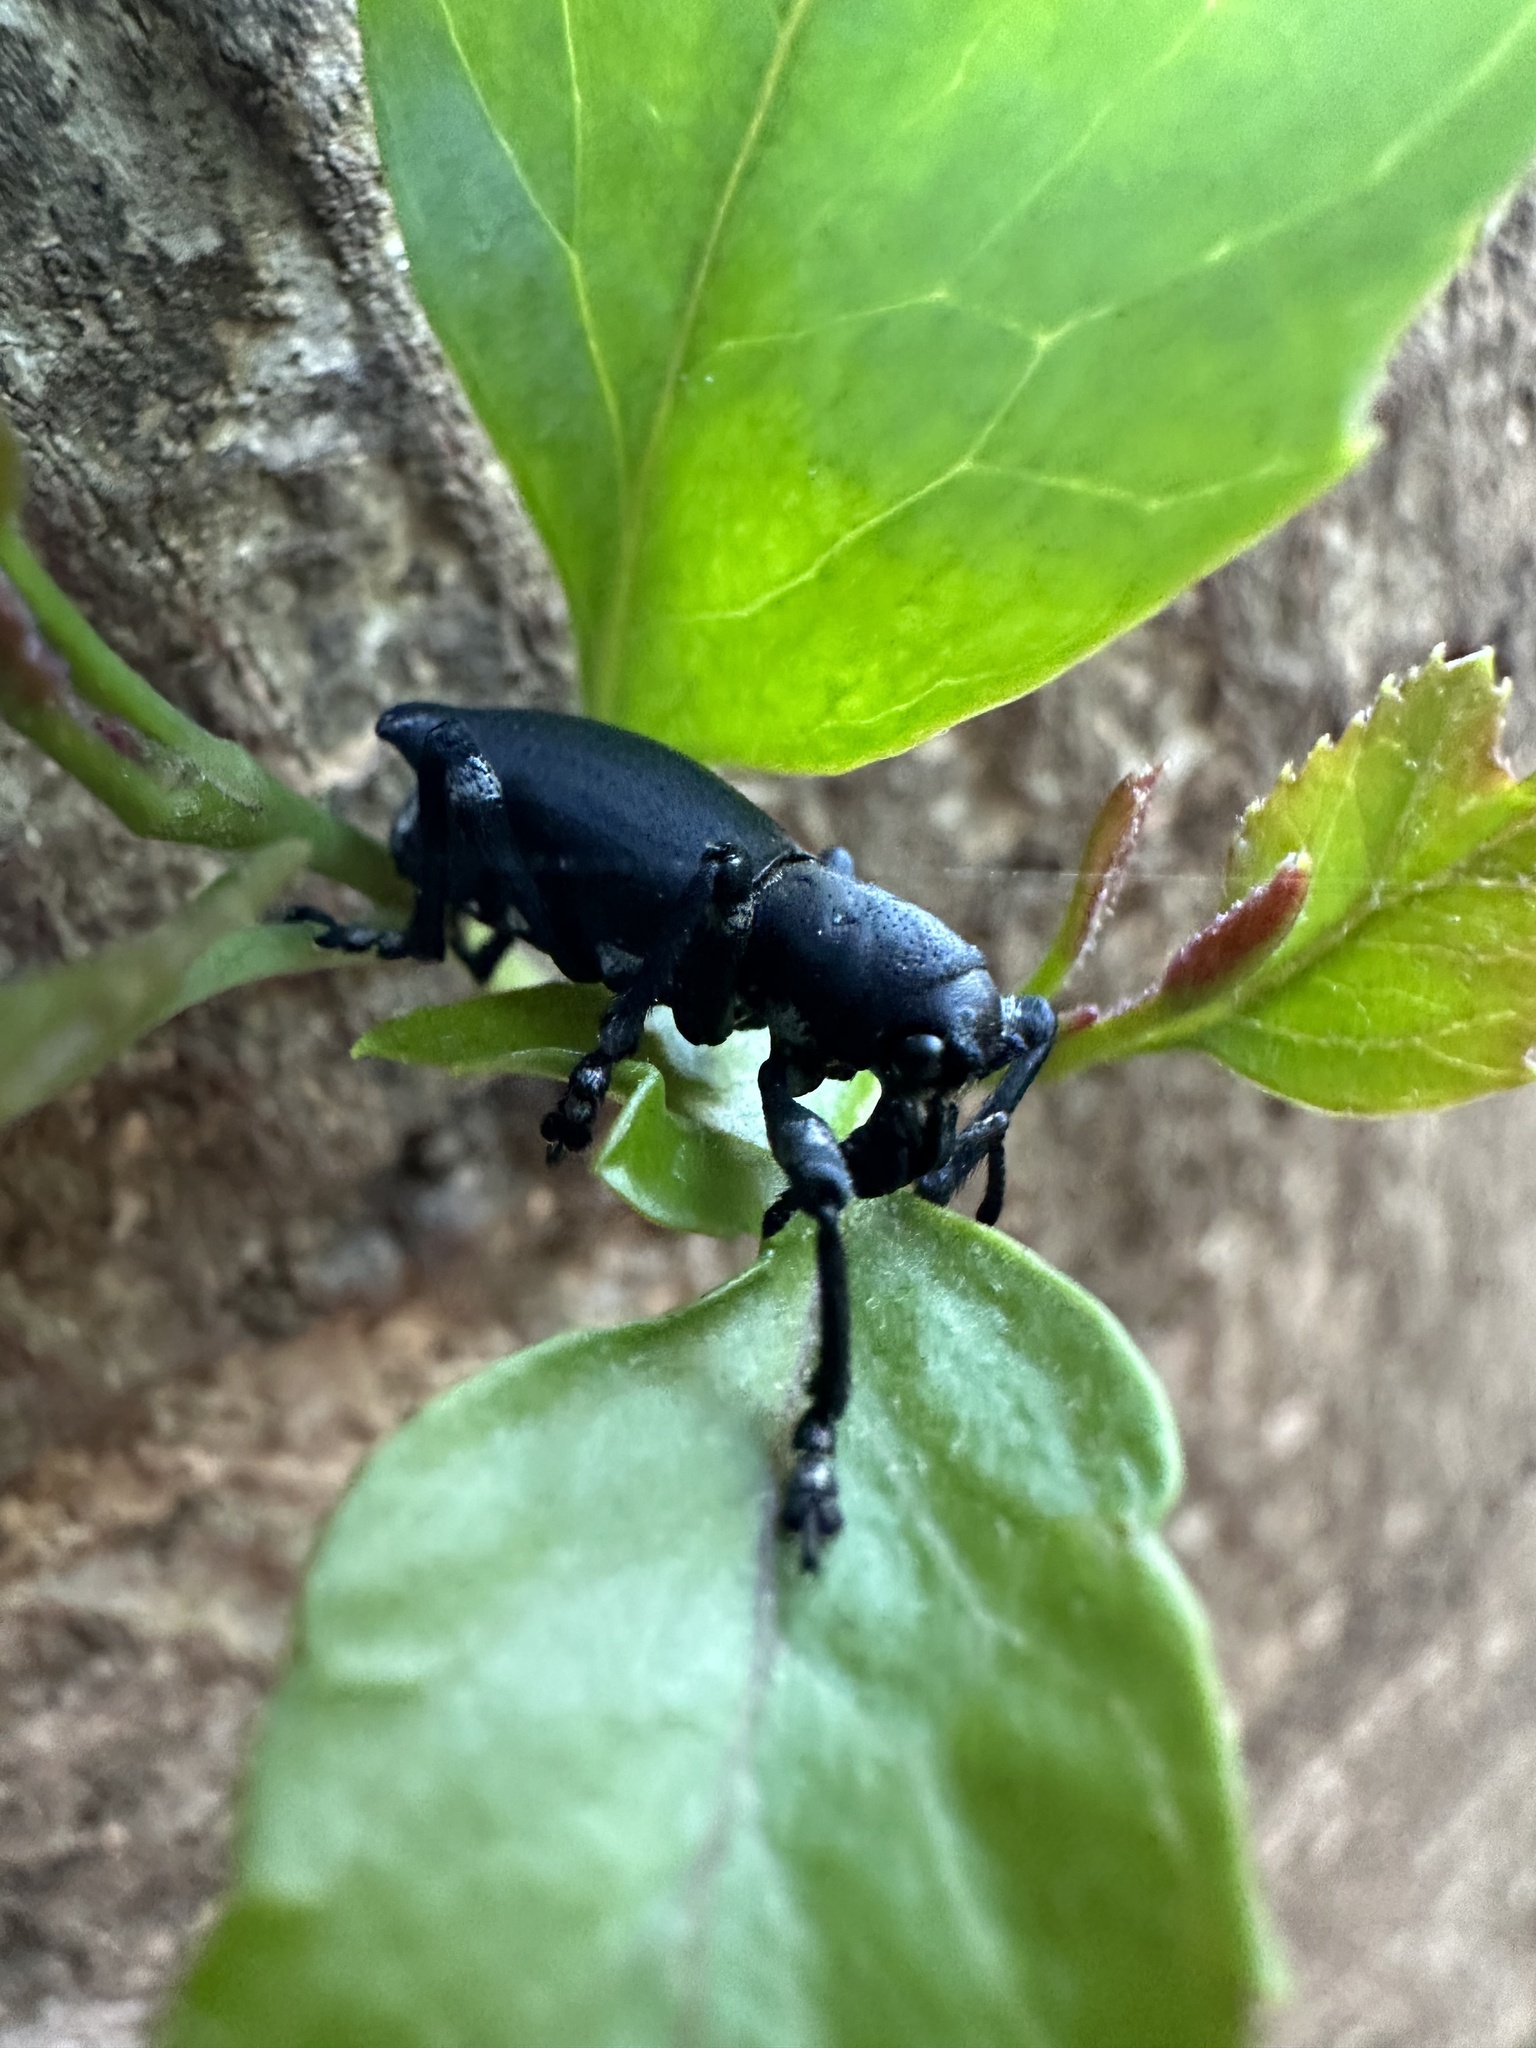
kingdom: Animalia
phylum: Arthropoda
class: Insecta
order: Coleoptera
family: Curculionidae
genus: Aegorhinus
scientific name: Aegorhinus
